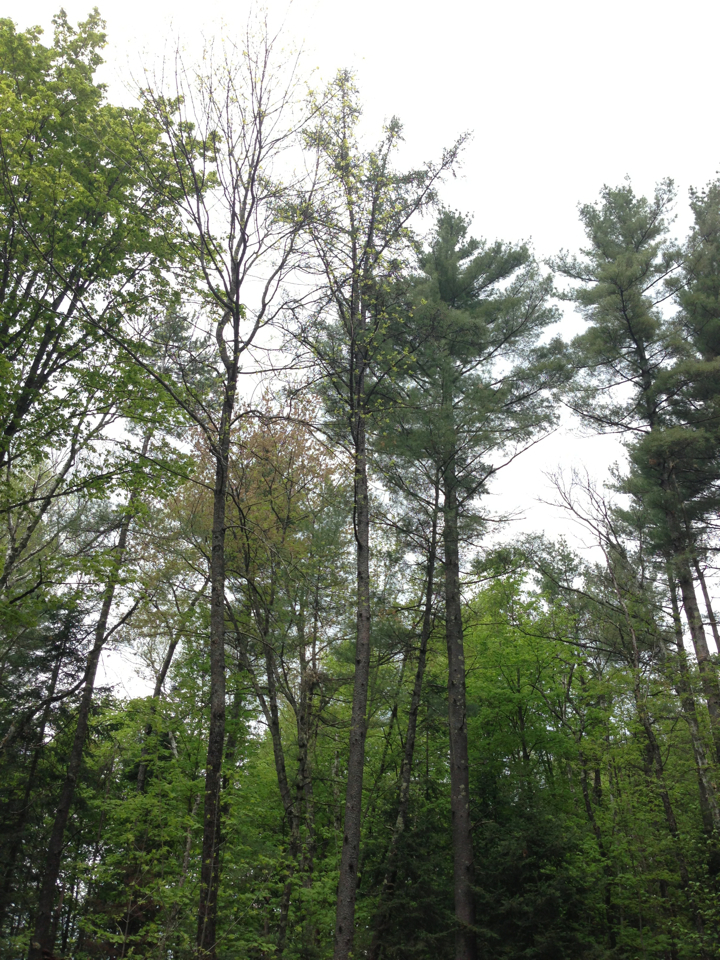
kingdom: Plantae
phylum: Tracheophyta
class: Pinopsida
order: Pinales
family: Pinaceae
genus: Larix
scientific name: Larix laricina
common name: American larch
